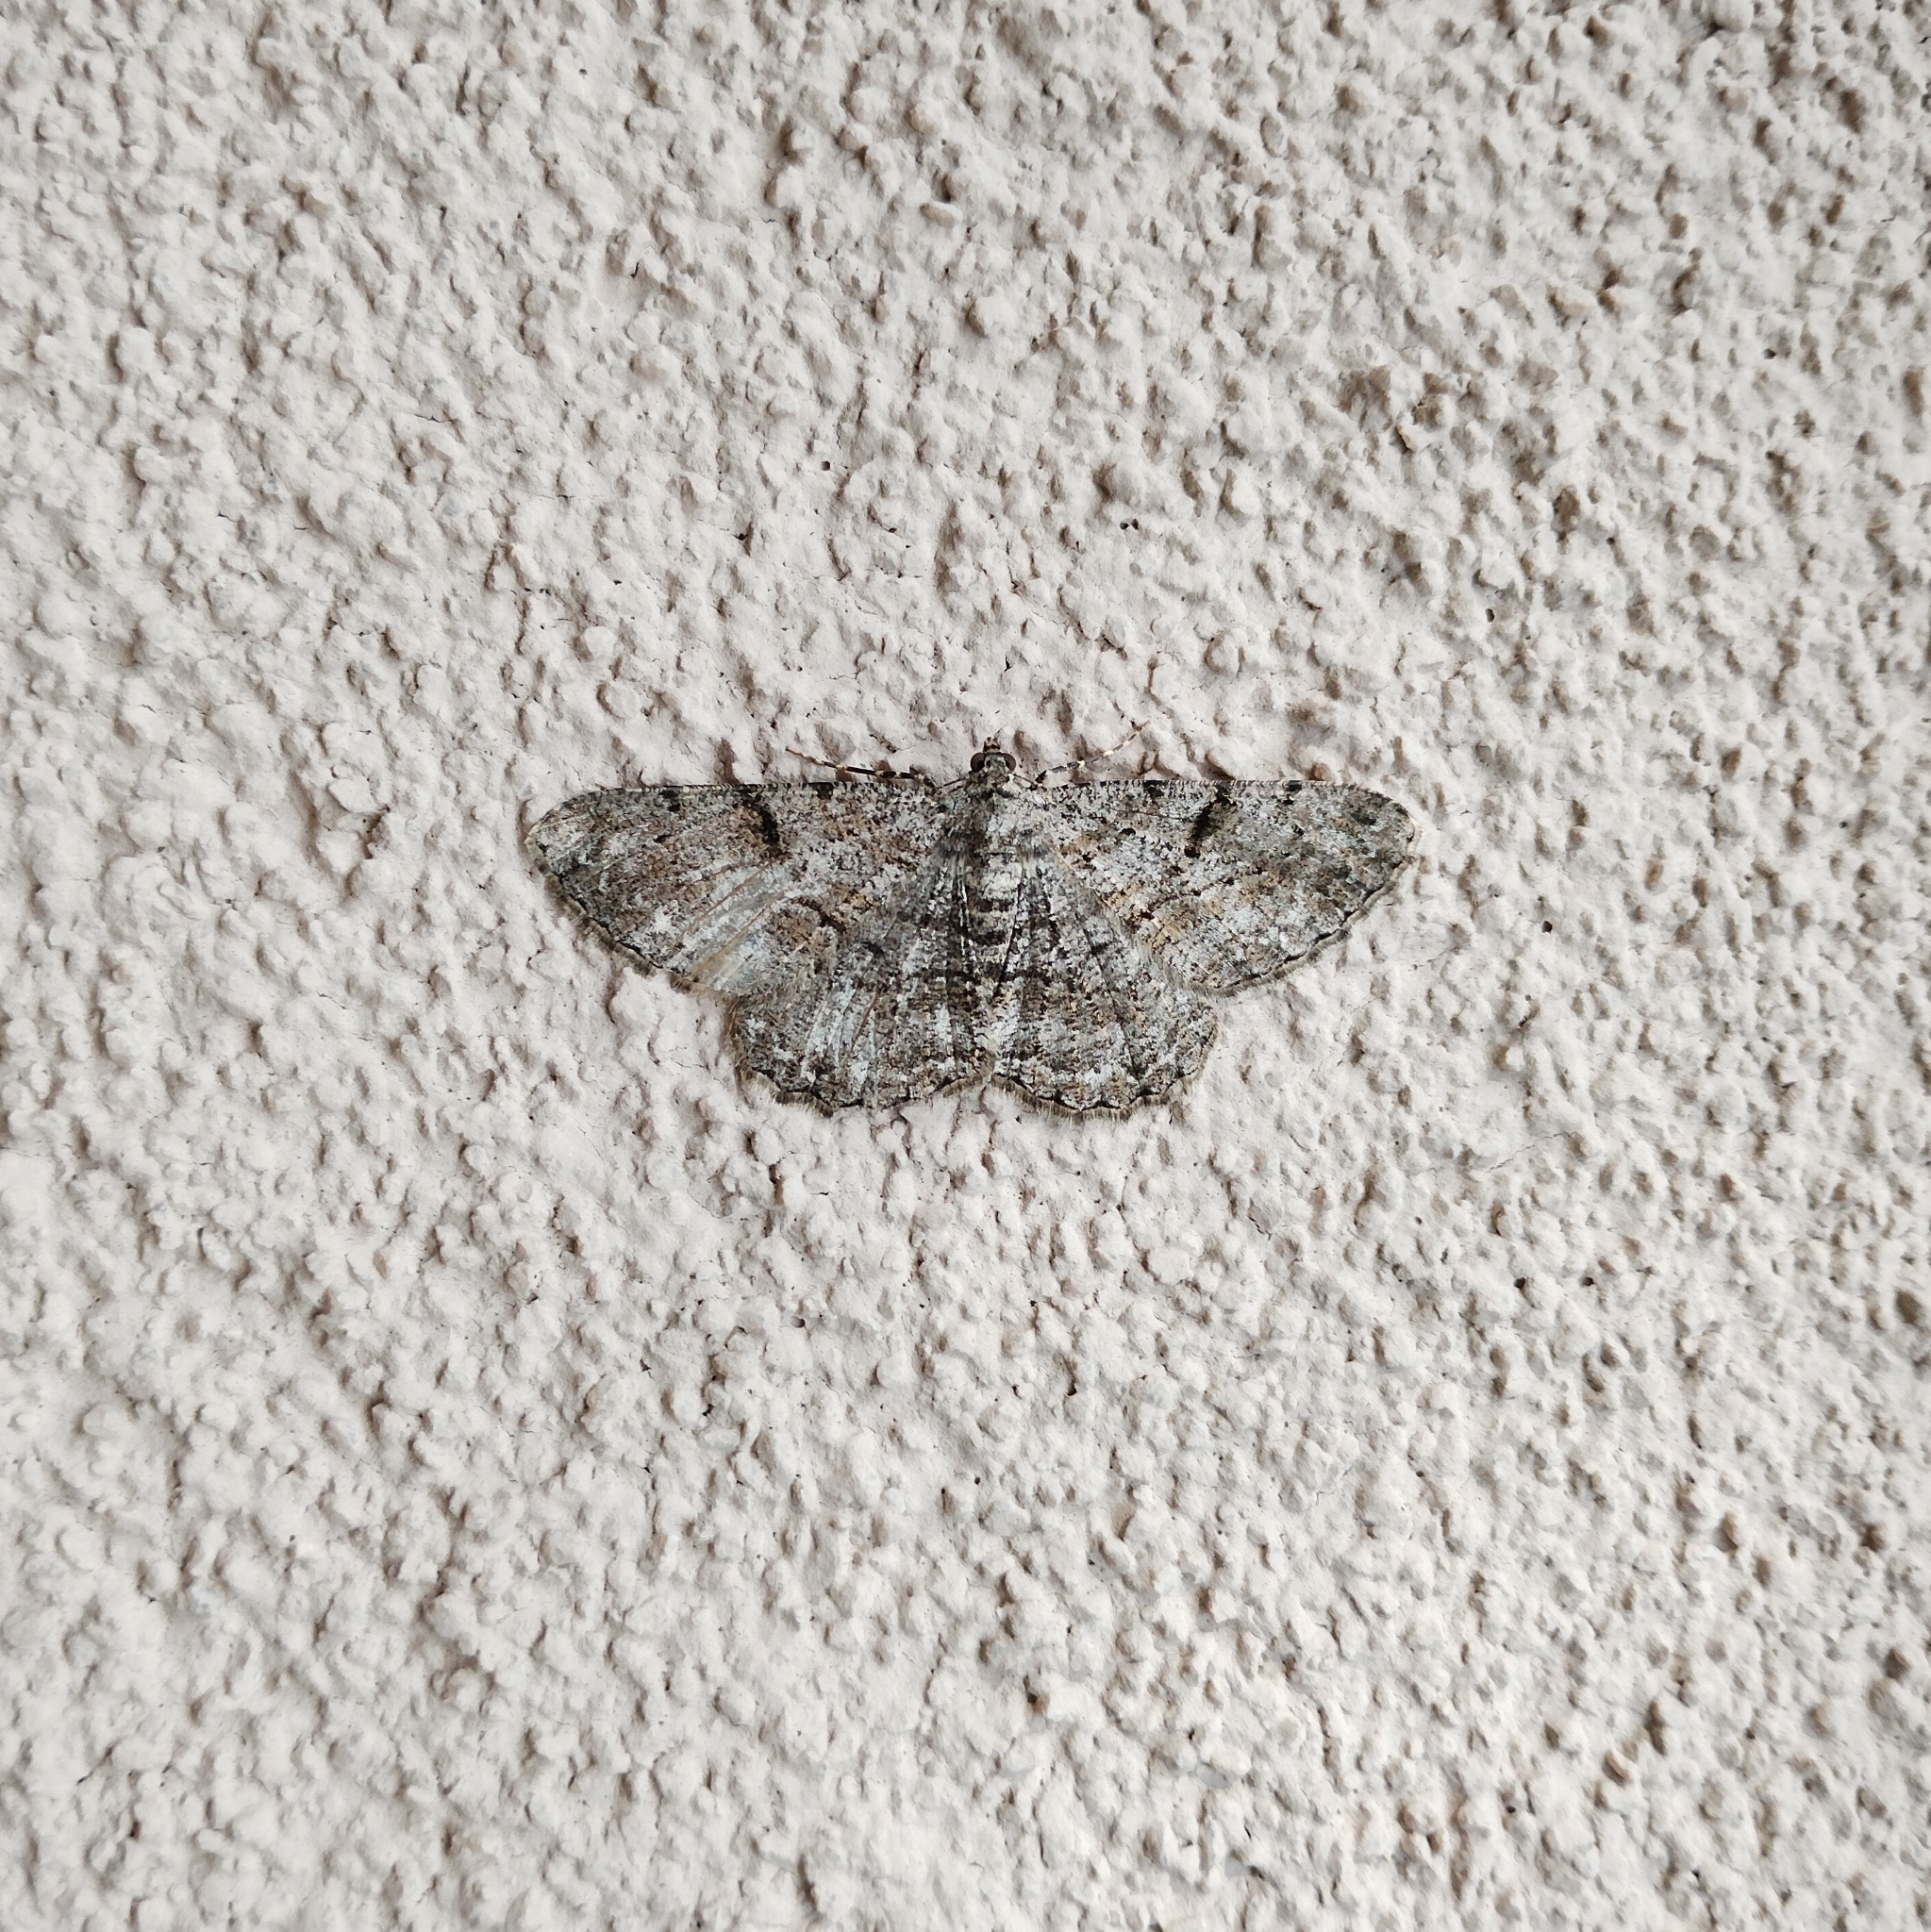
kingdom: Animalia
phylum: Arthropoda
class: Insecta
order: Lepidoptera
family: Geometridae
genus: Peribatodes
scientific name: Peribatodes rhomboidaria
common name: Willow beauty
